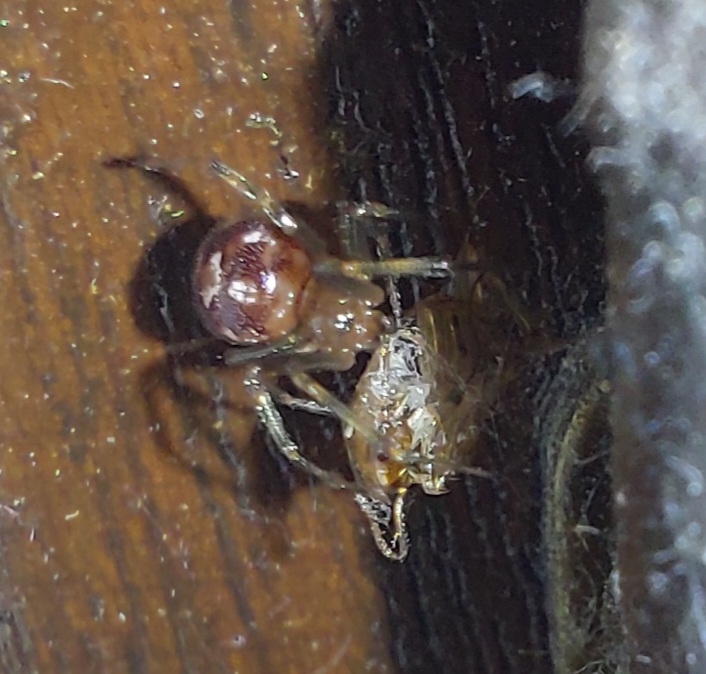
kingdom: Animalia
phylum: Arthropoda
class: Arachnida
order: Araneae
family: Theridiidae
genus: Steatoda
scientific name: Steatoda triangulosa
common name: Triangulate bud spider
